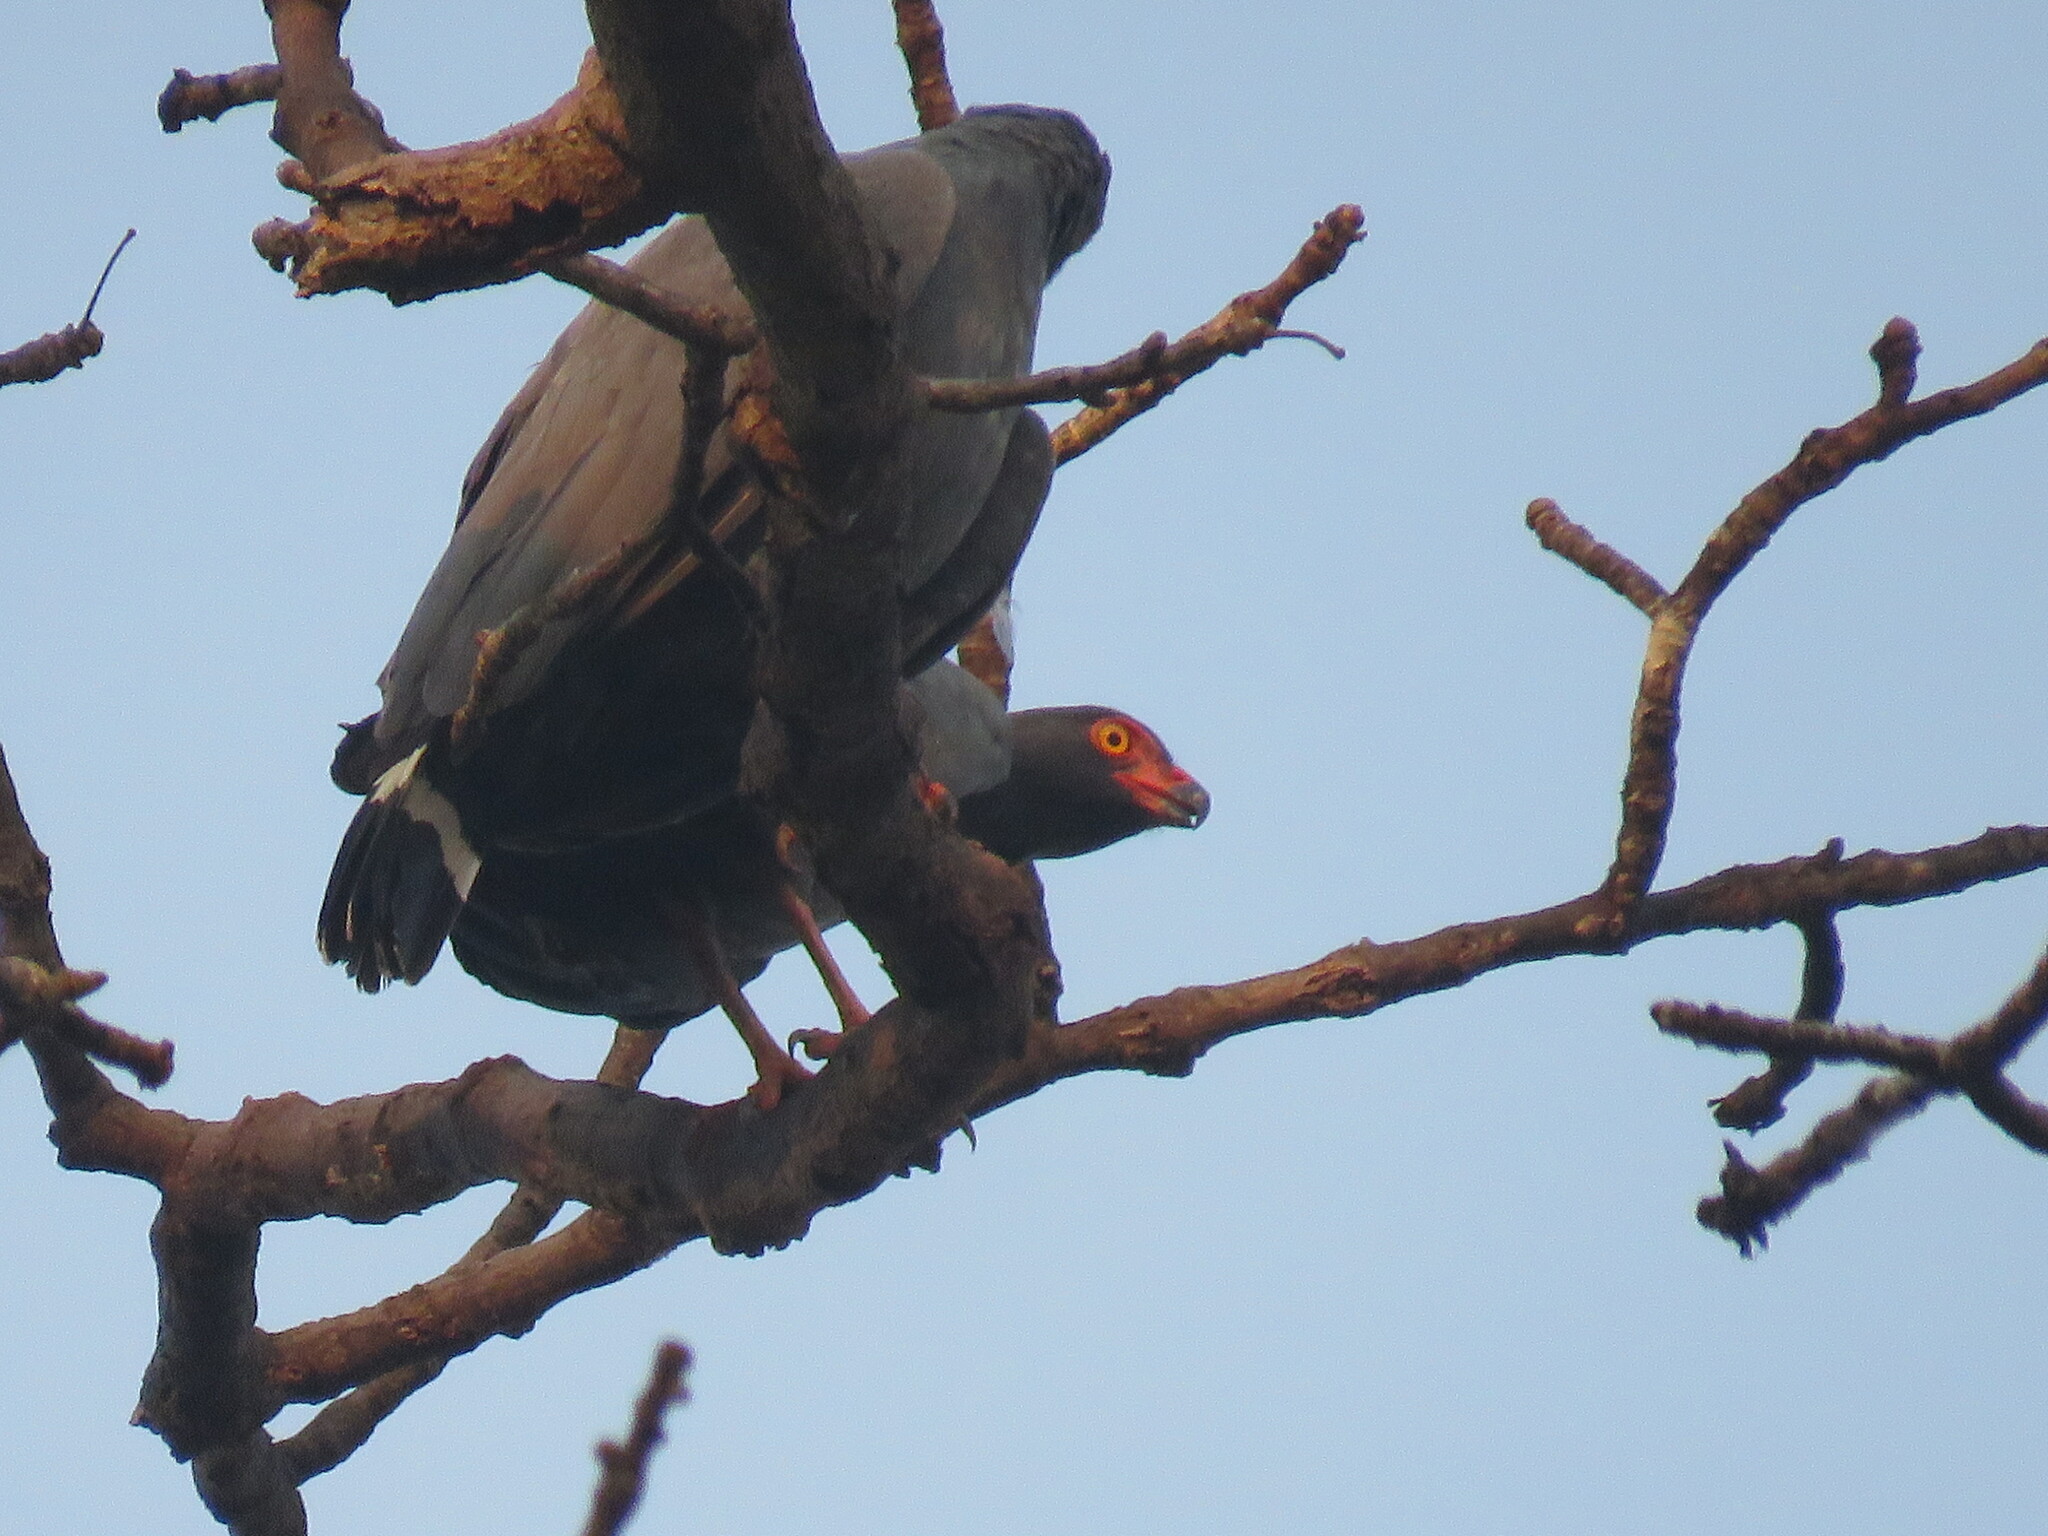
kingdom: Animalia
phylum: Chordata
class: Aves
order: Accipitriformes
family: Accipitridae
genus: Leucopternis
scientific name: Leucopternis schistaceus
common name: Slate-colored hawk
